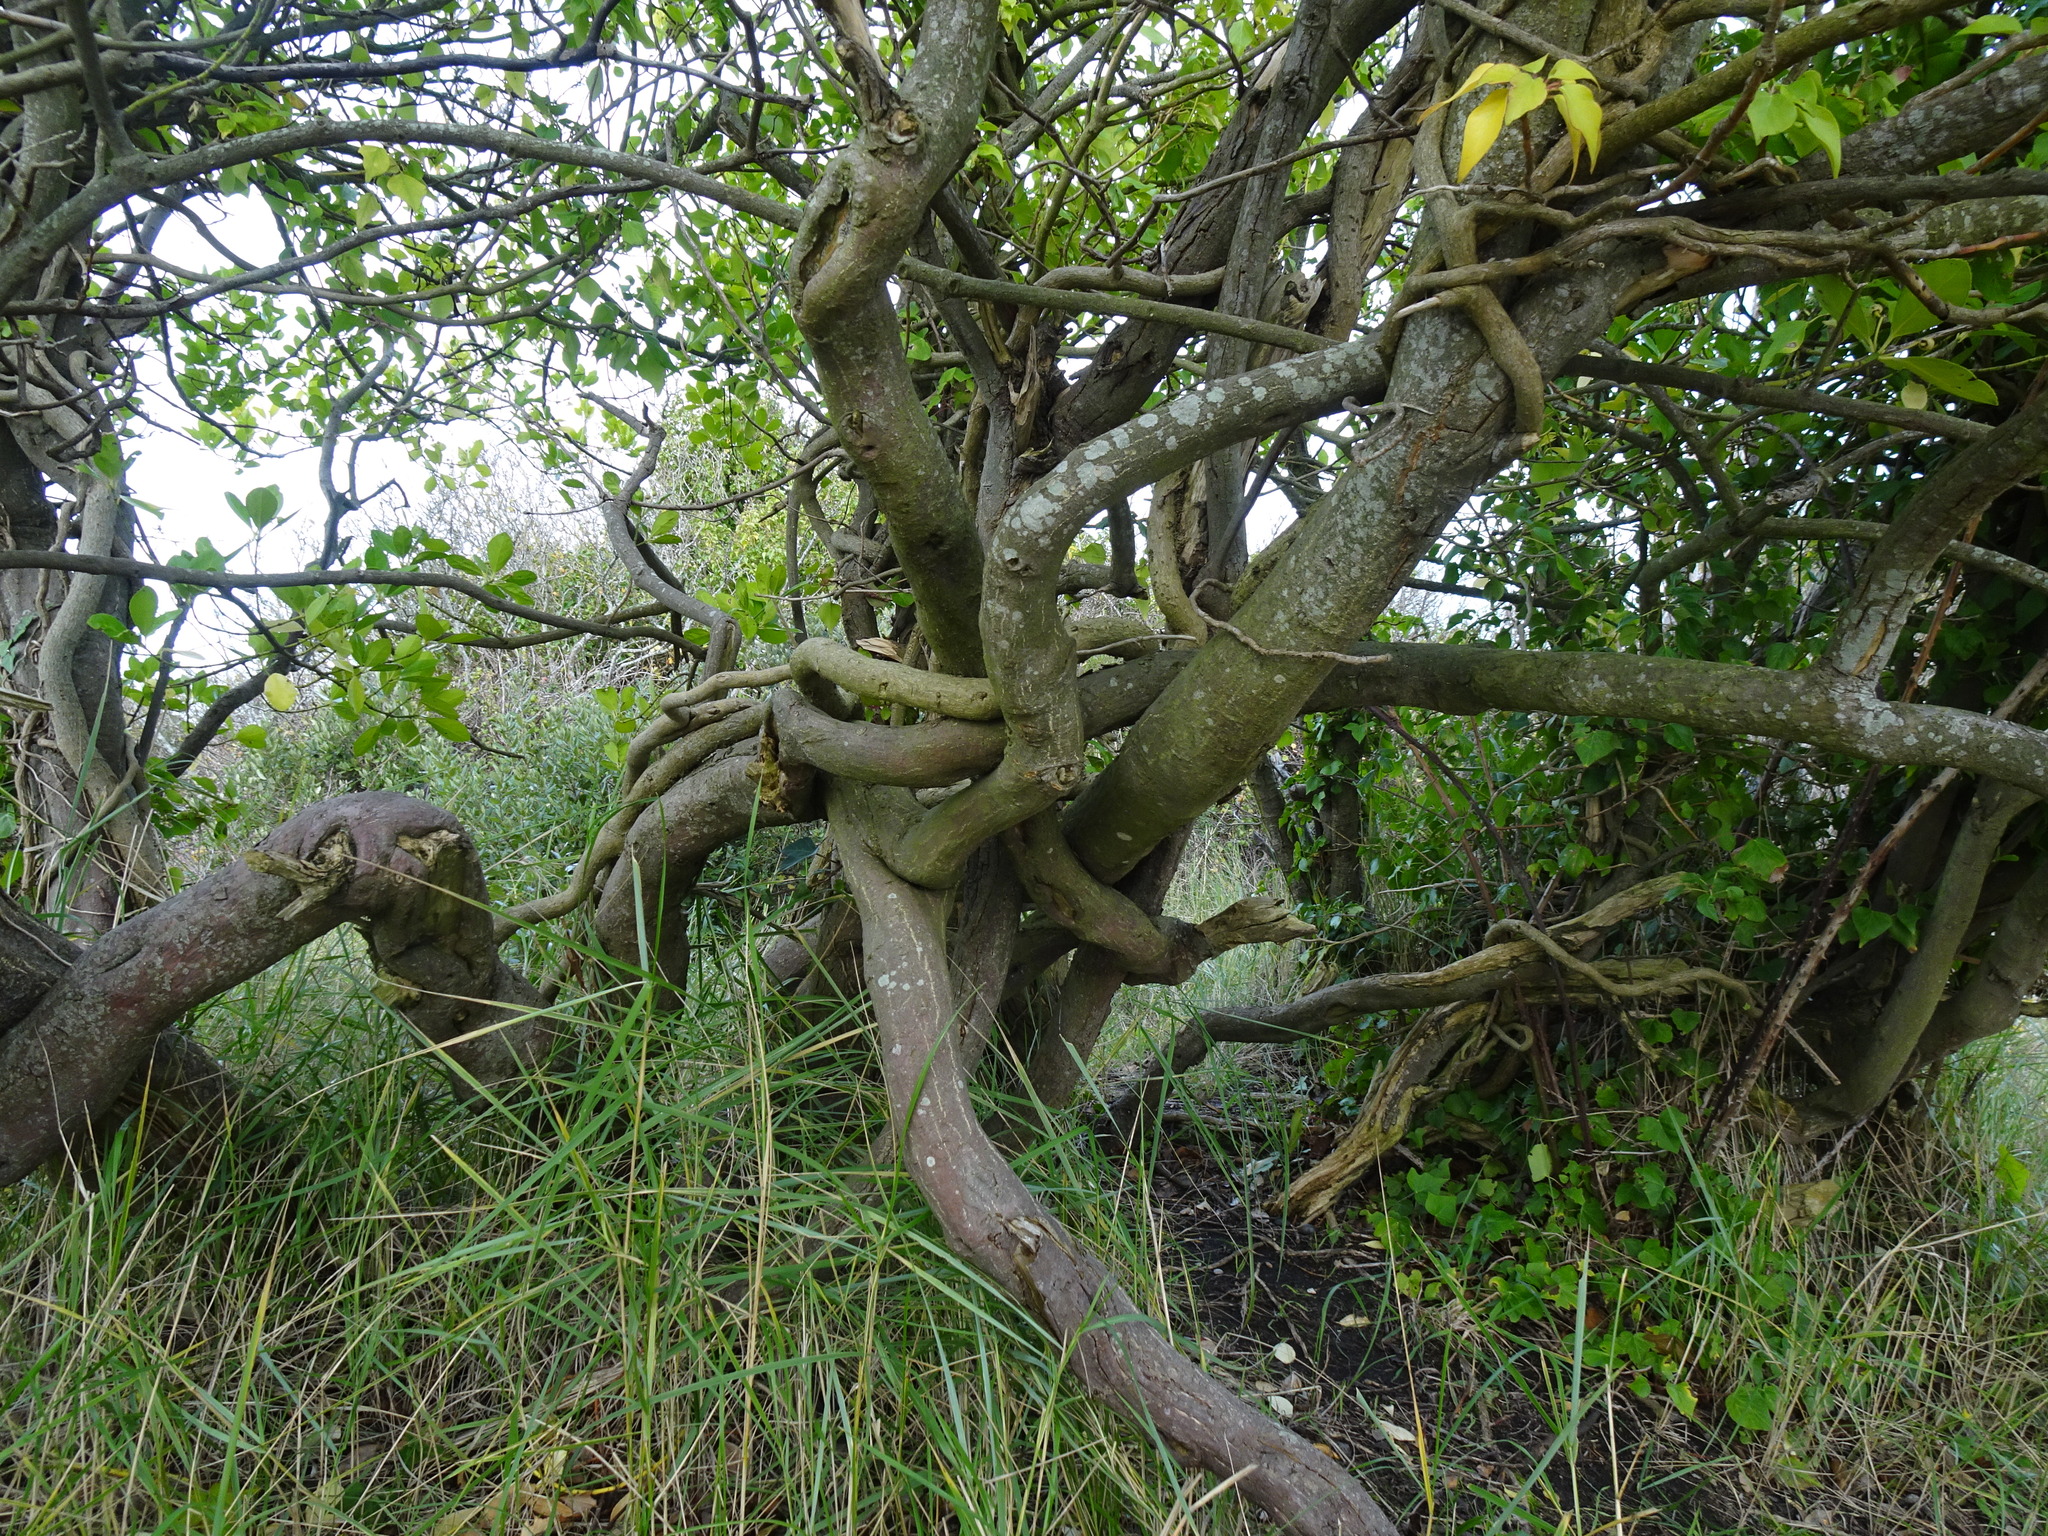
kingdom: Plantae
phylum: Tracheophyta
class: Magnoliopsida
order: Celastrales
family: Celastraceae
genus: Euonymus
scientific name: Euonymus japonicus
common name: Japanese spindletree
